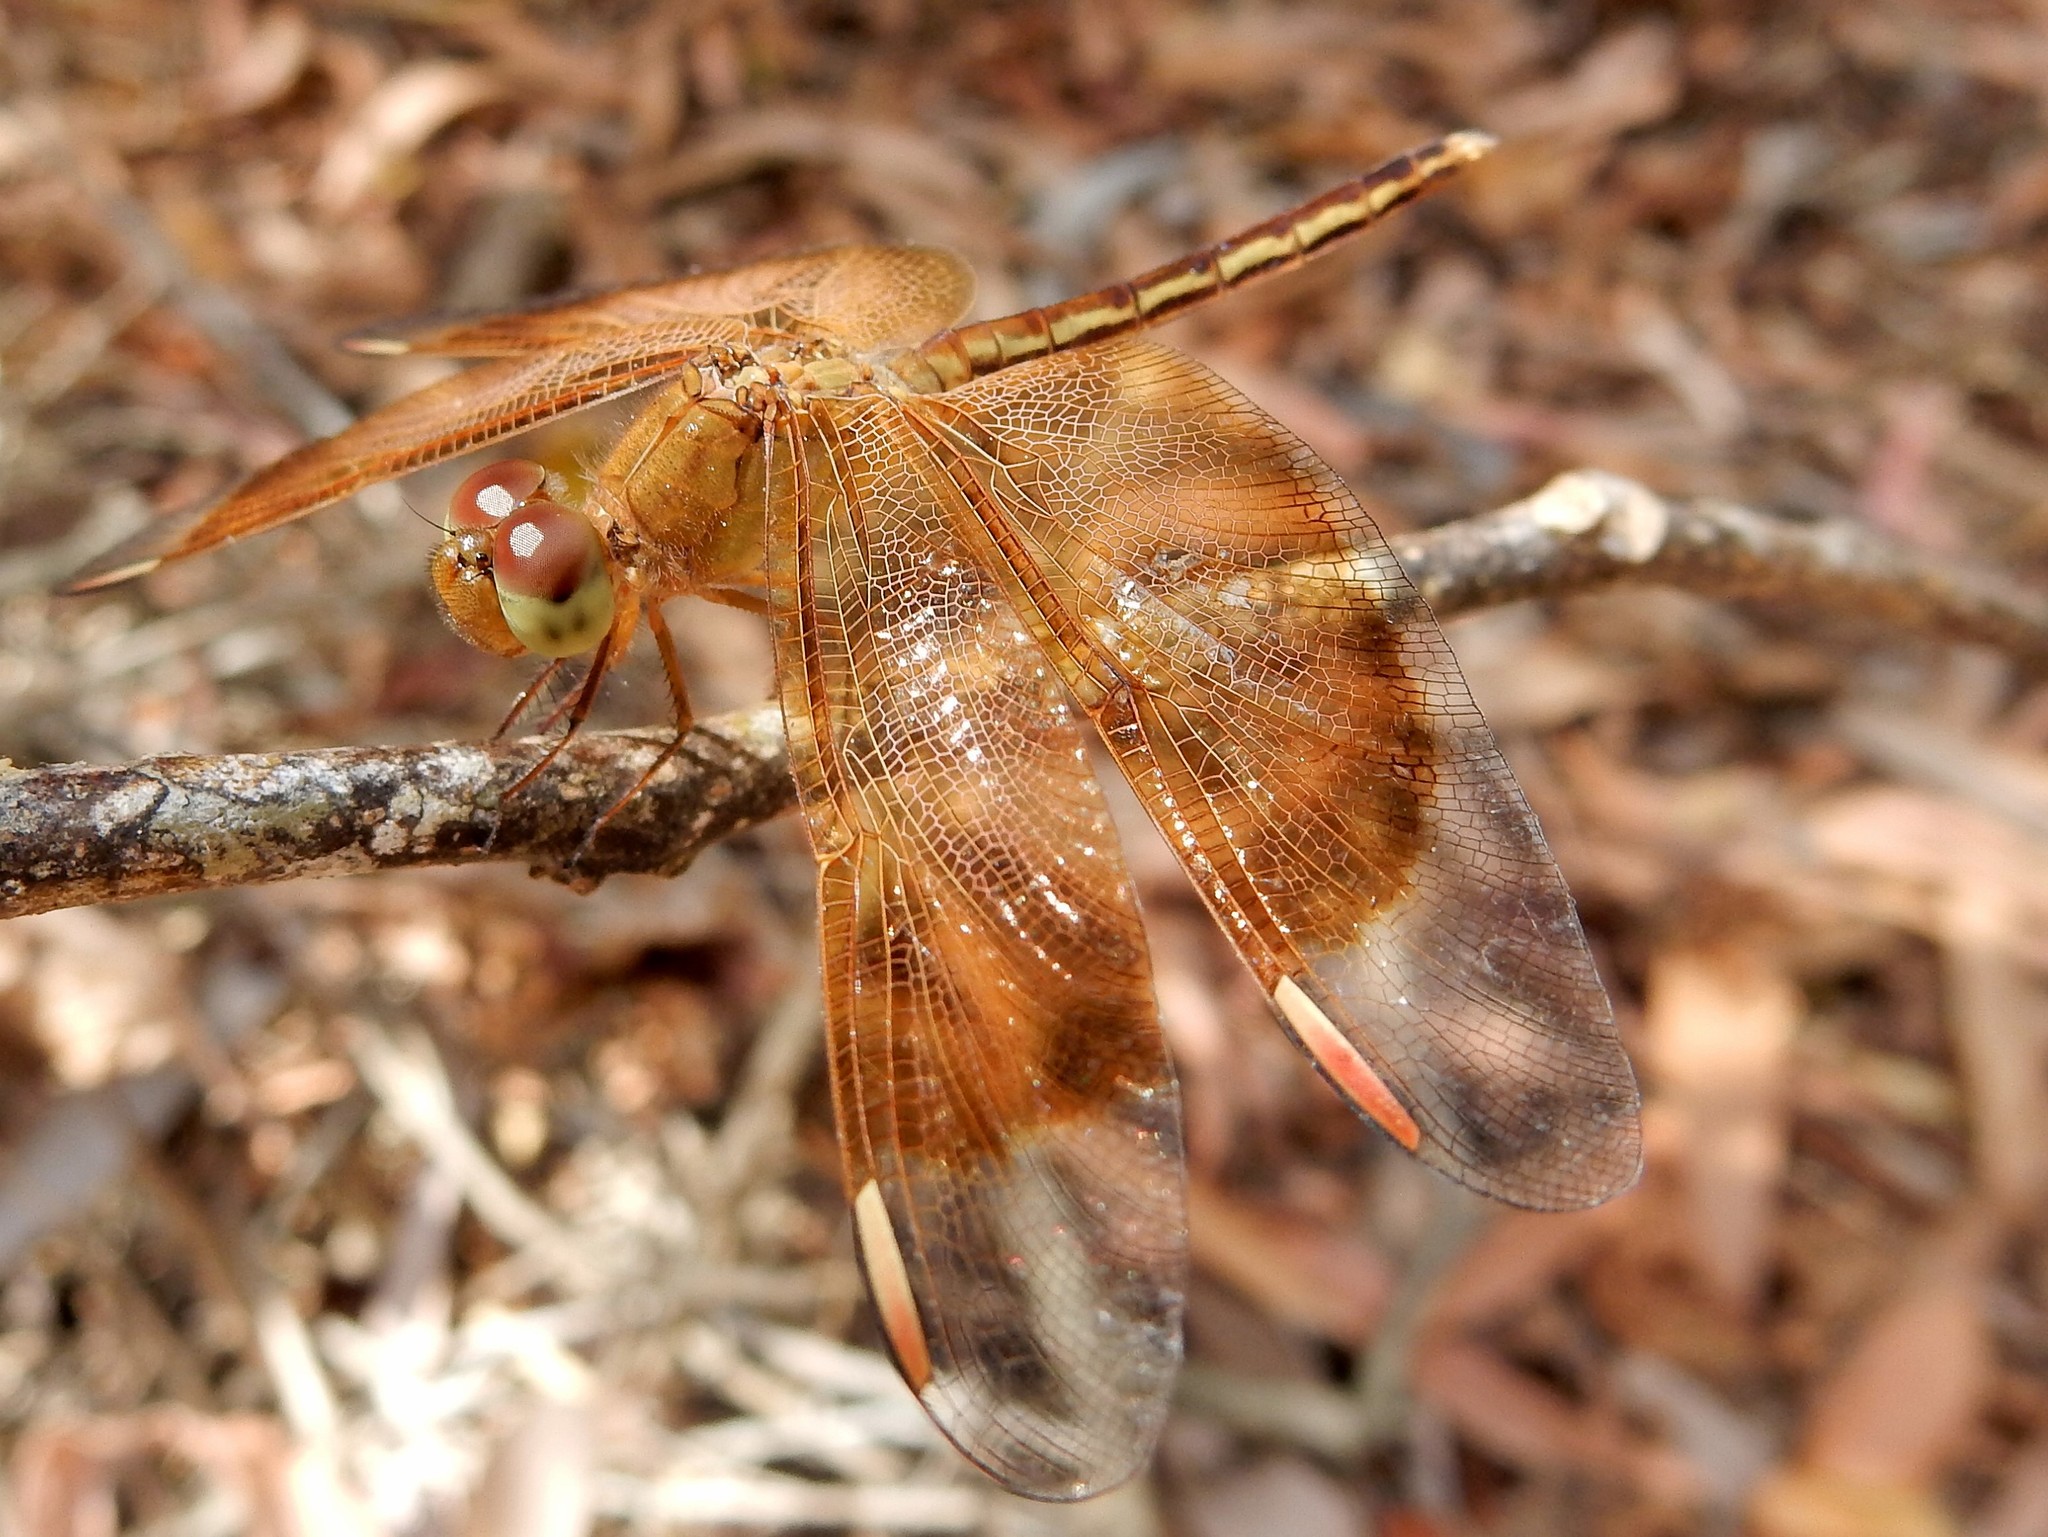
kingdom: Animalia
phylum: Arthropoda
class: Insecta
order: Odonata
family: Libellulidae
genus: Neurothemis
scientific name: Neurothemis stigmatizans
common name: Painted grasshawk
